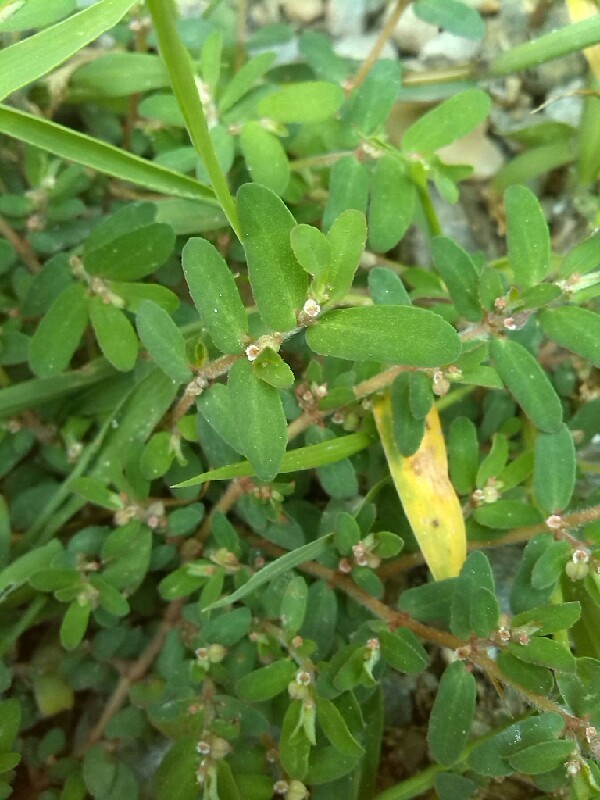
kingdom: Plantae
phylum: Tracheophyta
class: Magnoliopsida
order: Malpighiales
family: Euphorbiaceae
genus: Euphorbia
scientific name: Euphorbia maculata
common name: Spotted spurge
